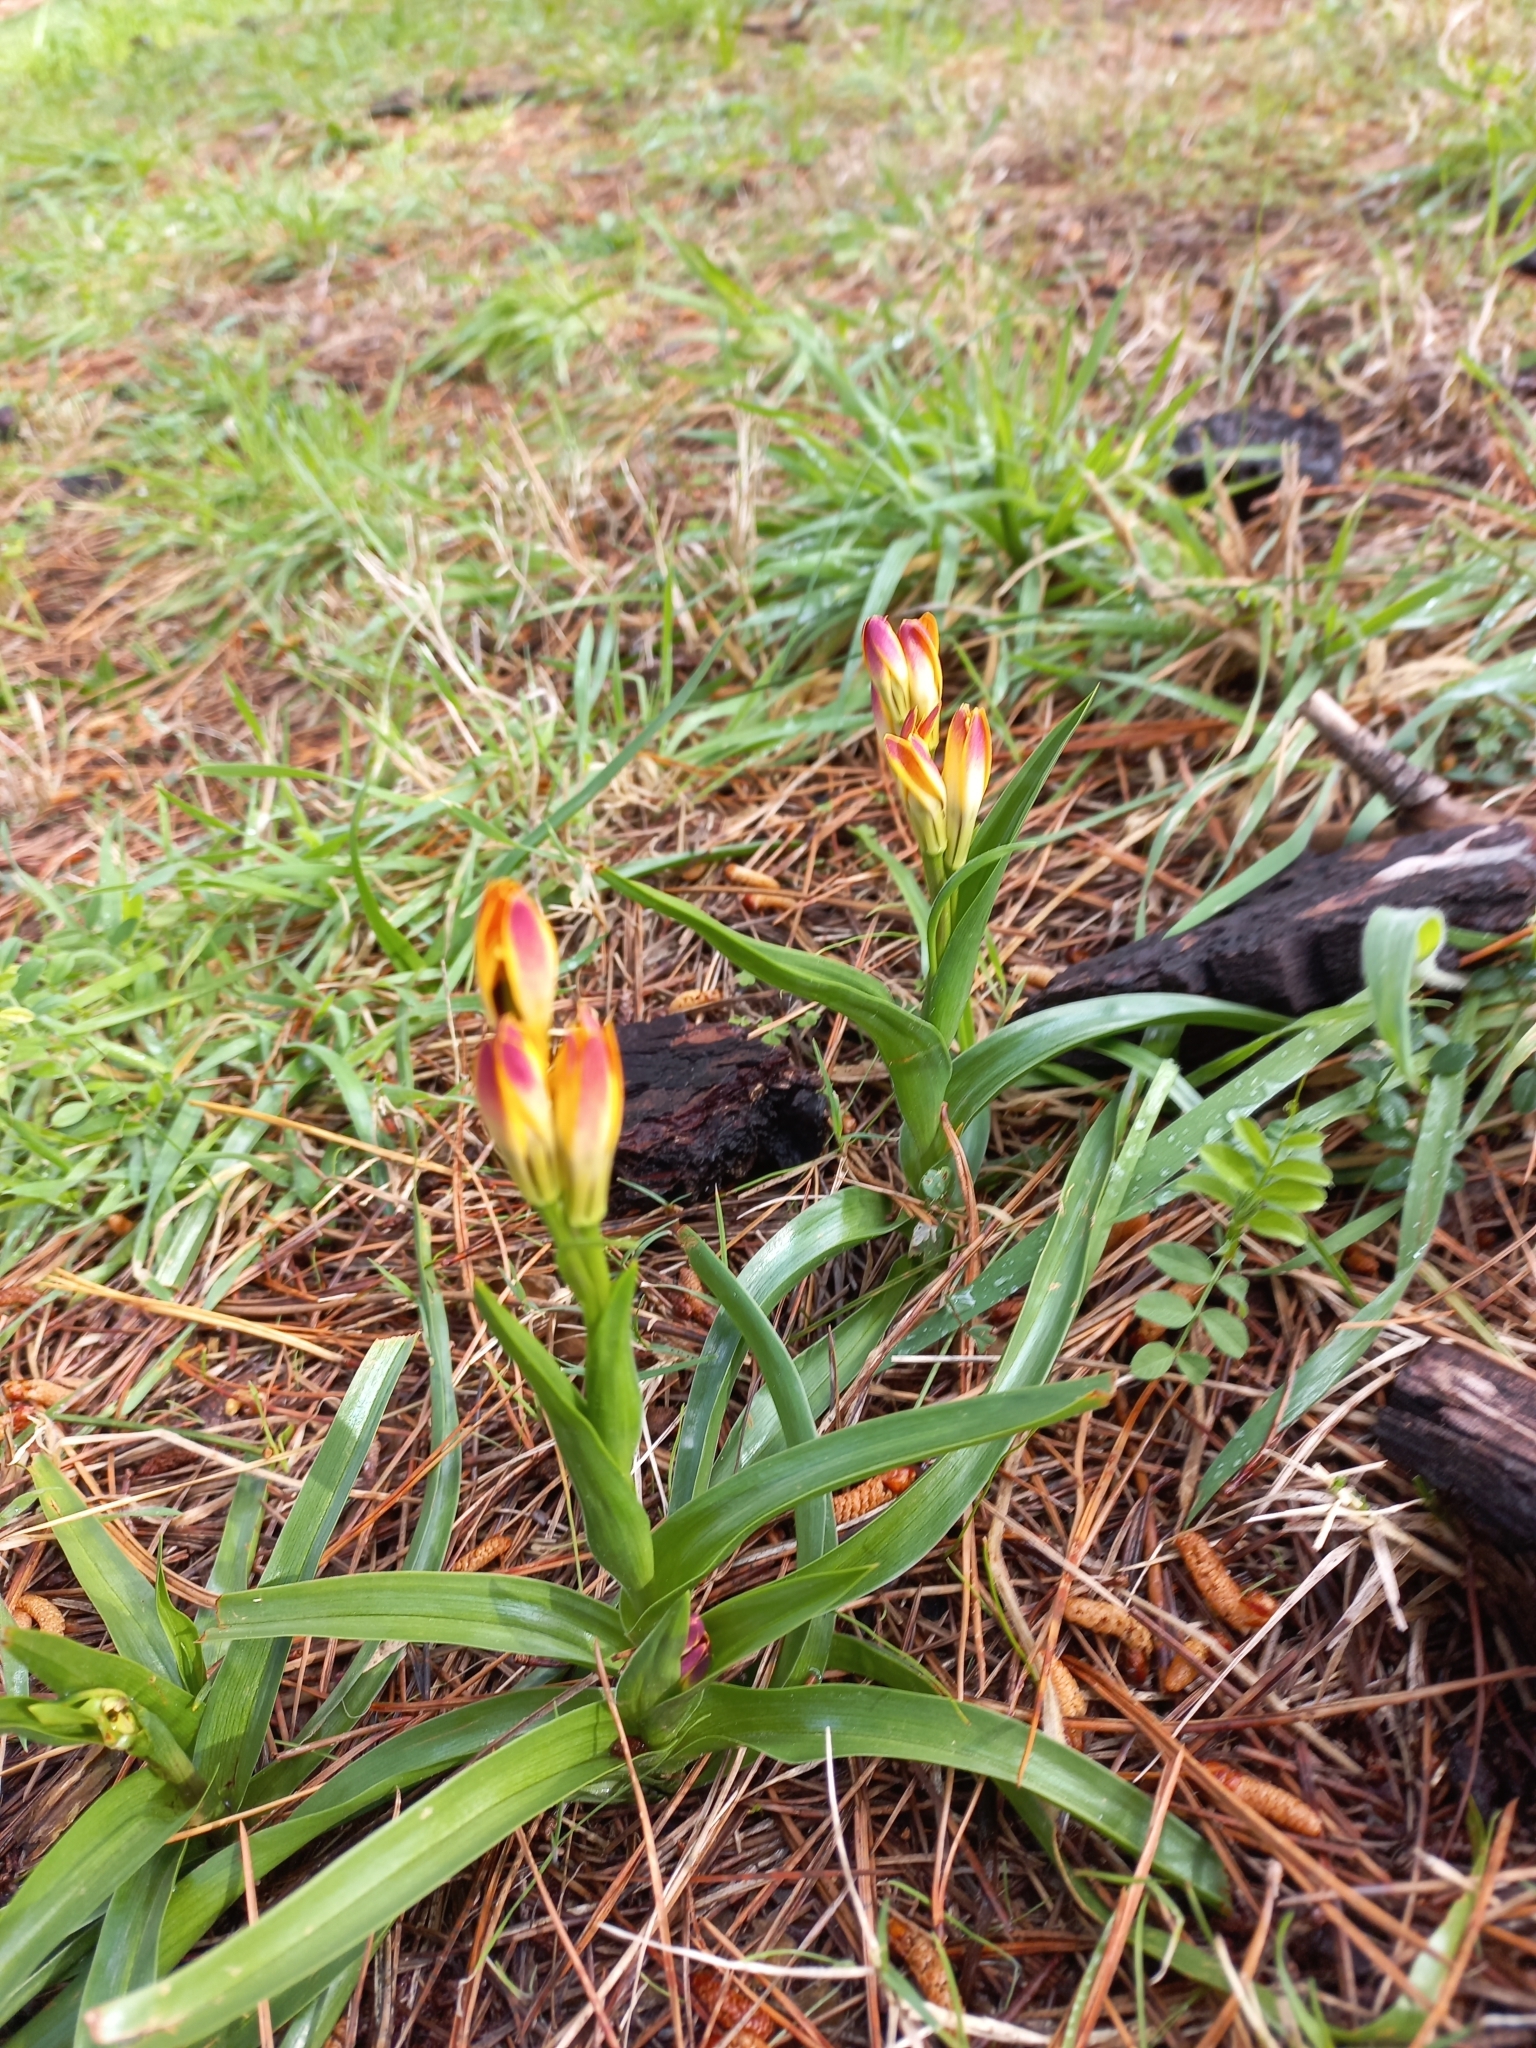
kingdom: Plantae
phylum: Tracheophyta
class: Liliopsida
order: Liliales
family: Colchicaceae
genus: Baeometra
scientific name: Baeometra uniflora
